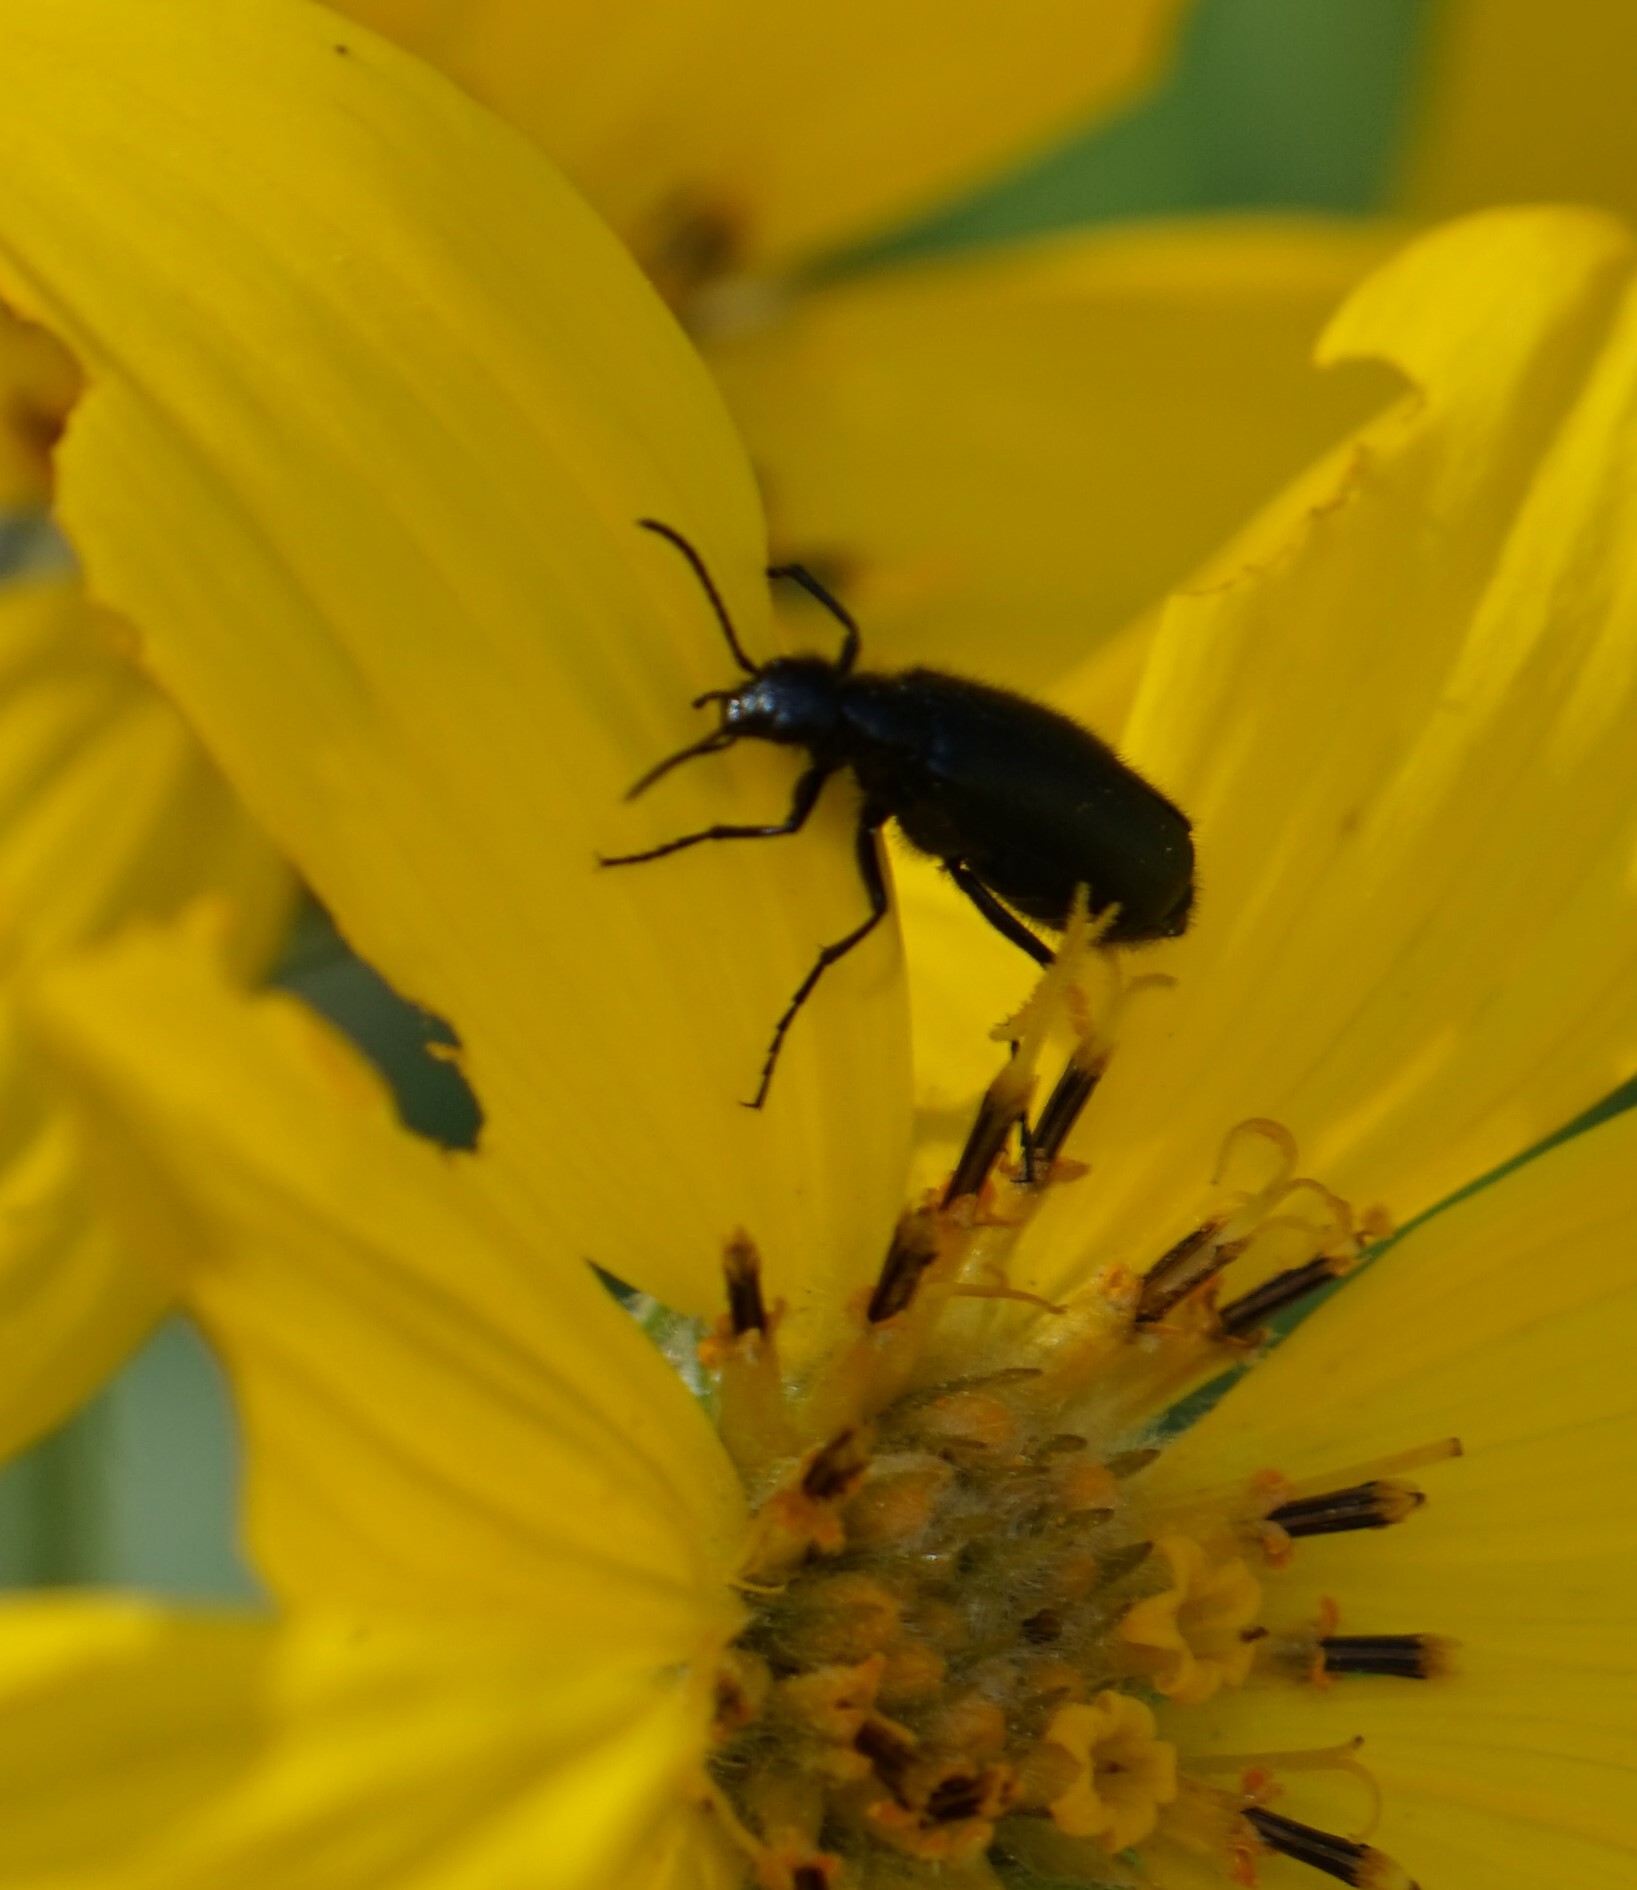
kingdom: Animalia
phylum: Arthropoda
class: Insecta
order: Coleoptera
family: Meloidae
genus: Epicauta
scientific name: Epicauta puncticollis
